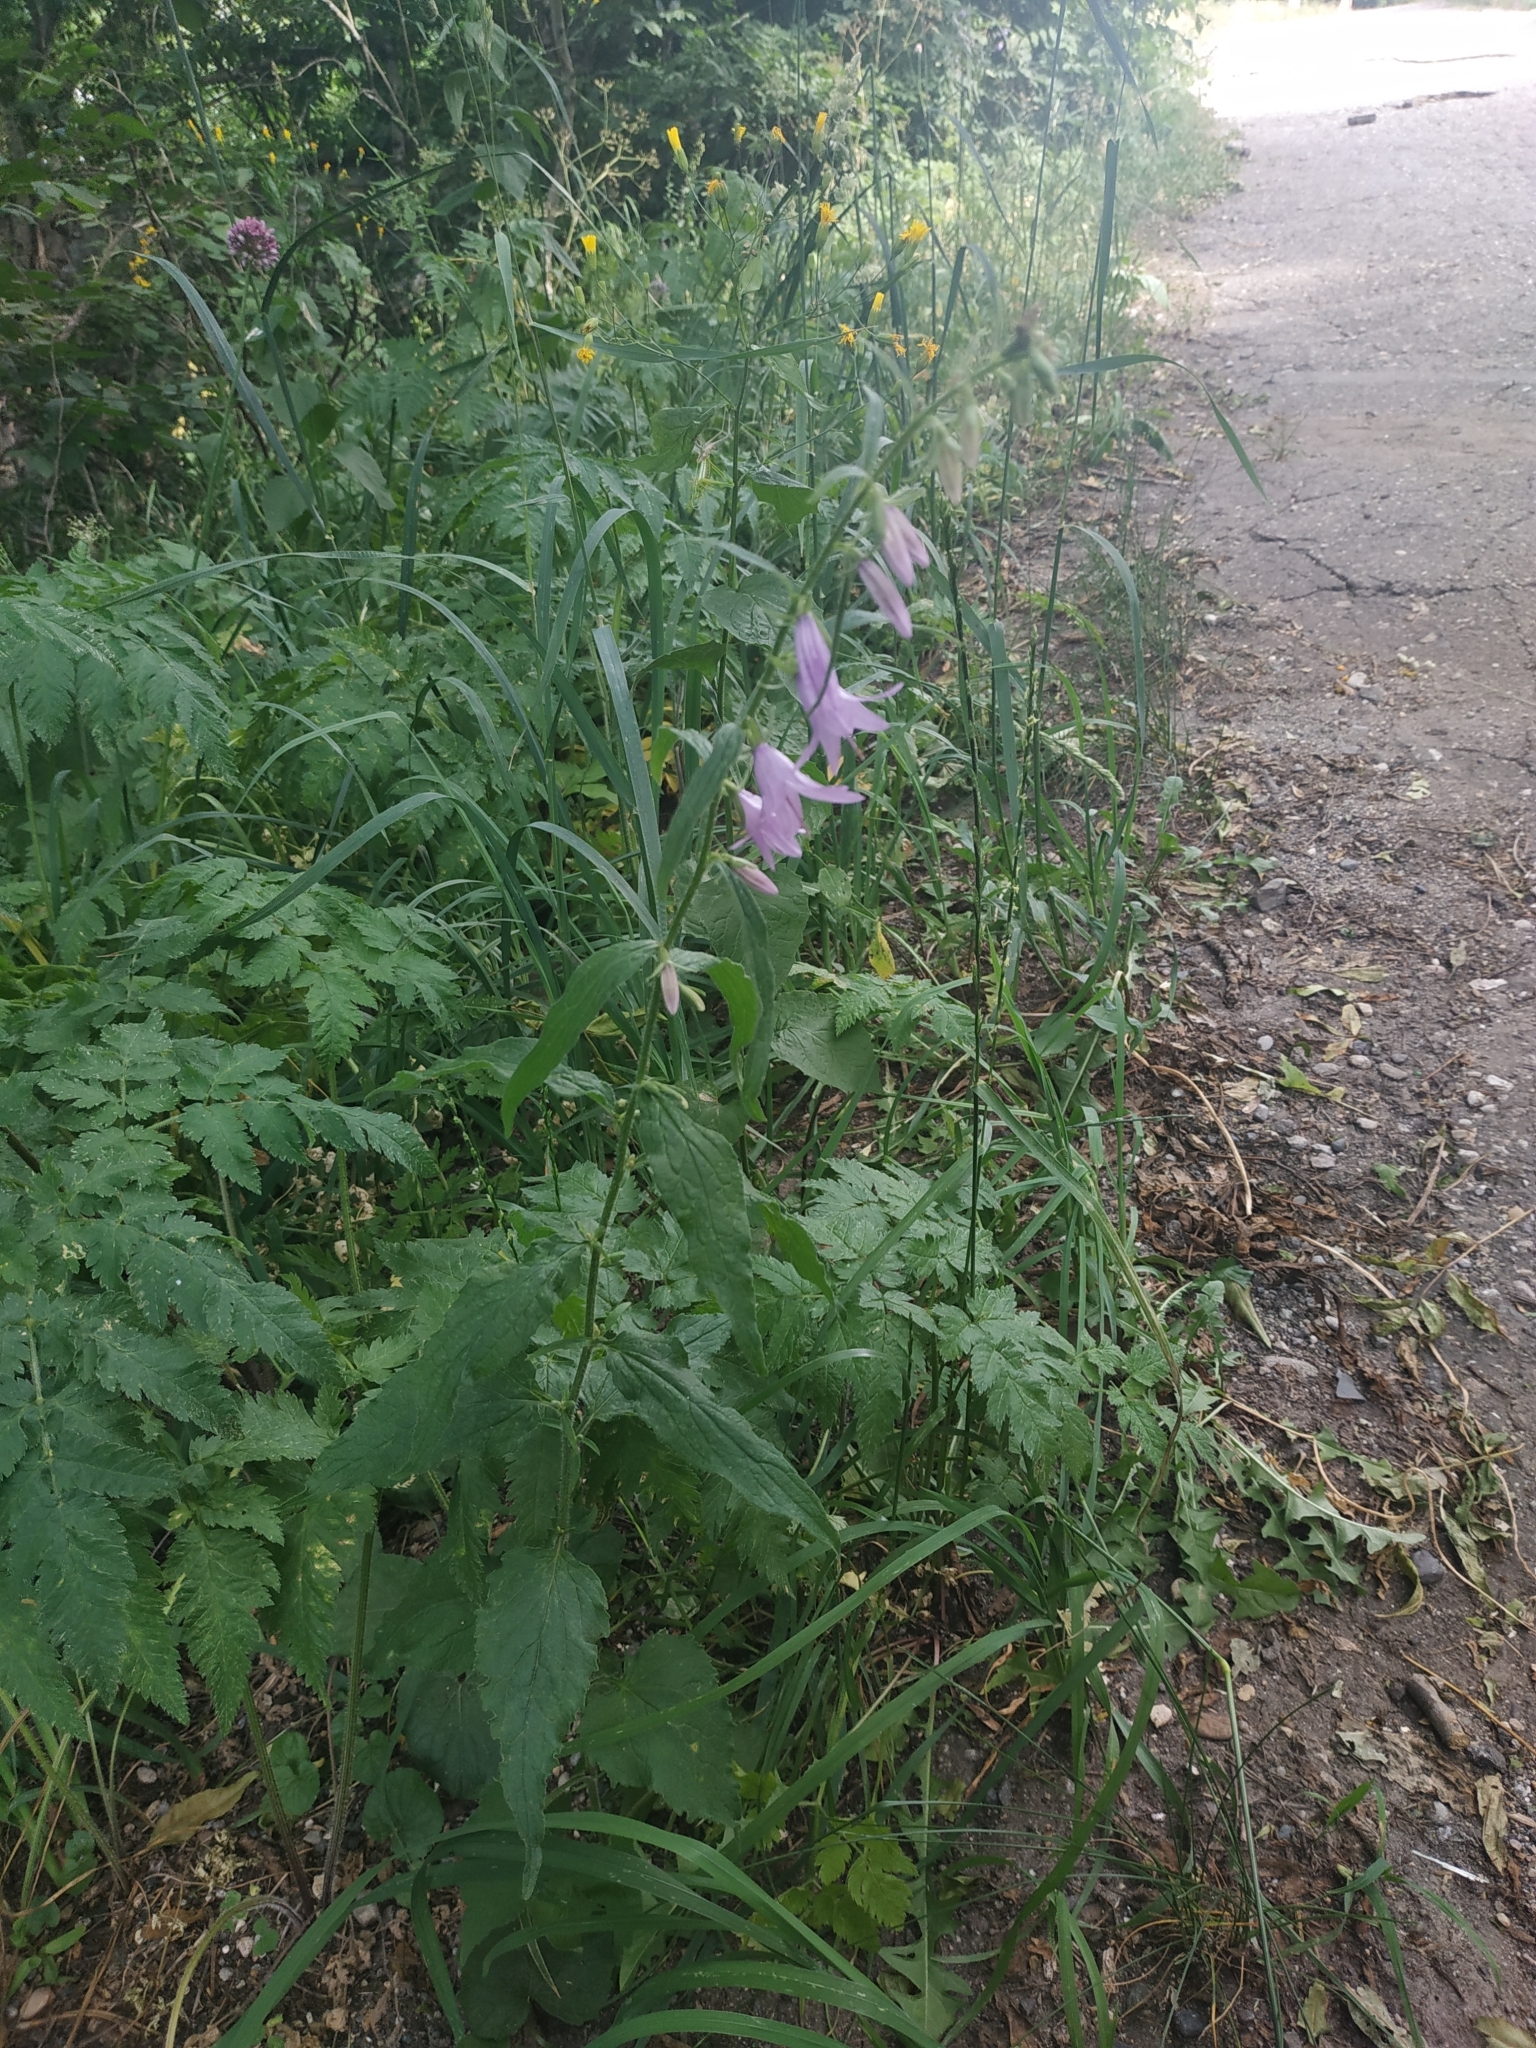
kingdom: Plantae
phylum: Tracheophyta
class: Magnoliopsida
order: Asterales
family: Campanulaceae
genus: Campanula
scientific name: Campanula rapunculoides
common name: Creeping bellflower
